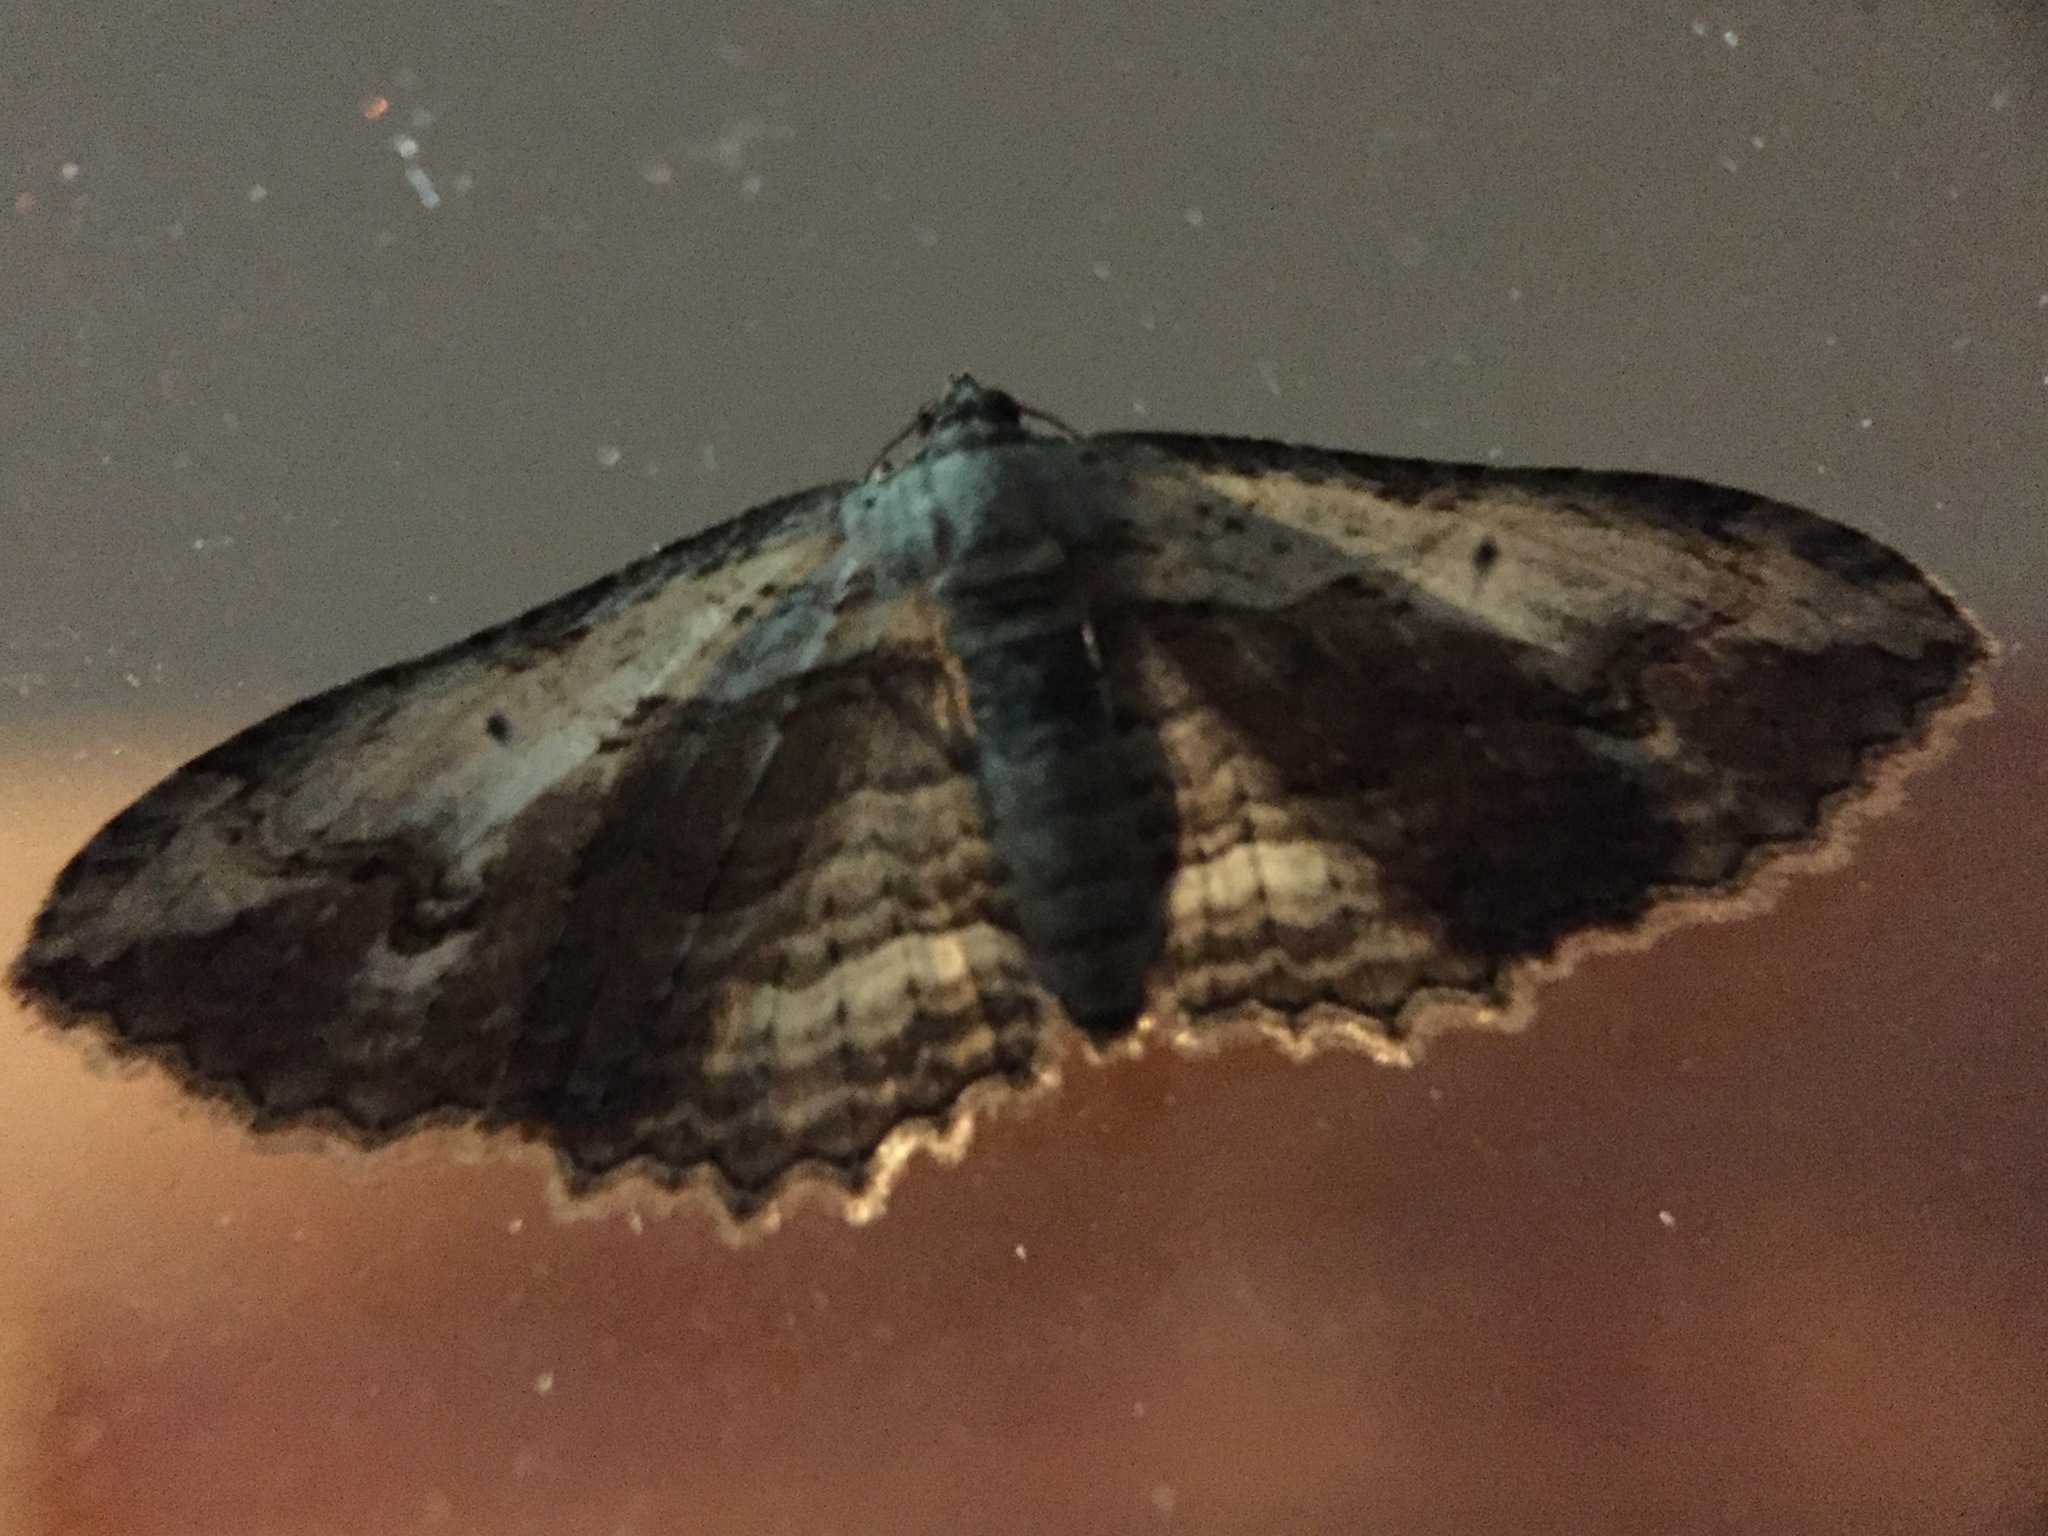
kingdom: Animalia
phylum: Arthropoda
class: Insecta
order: Lepidoptera
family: Geometridae
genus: Austrocidaria
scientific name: Austrocidaria bipartita
